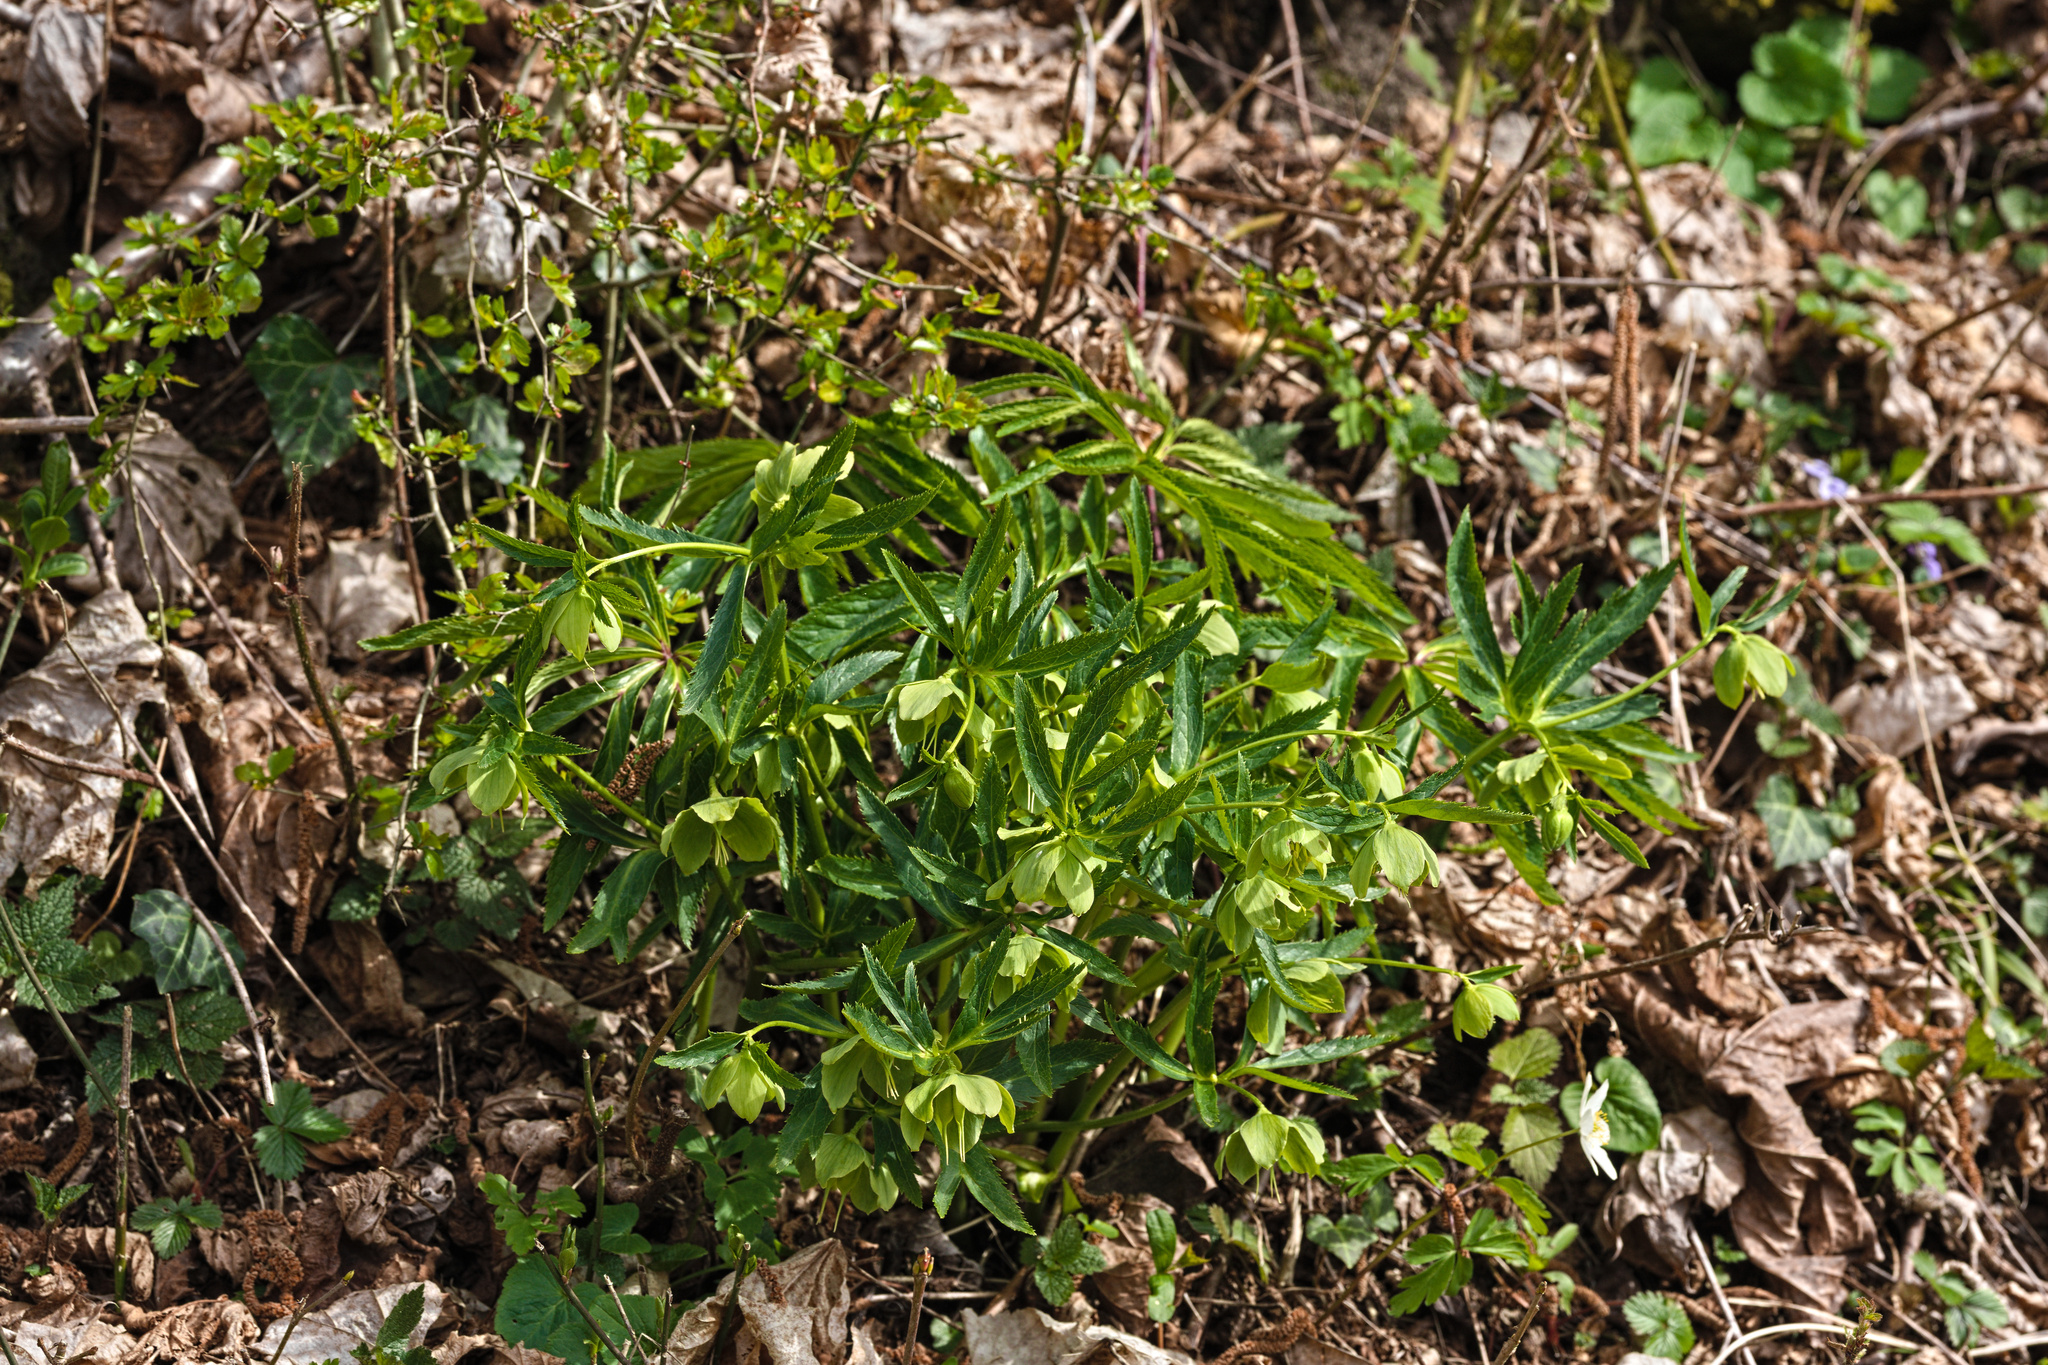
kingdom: Plantae
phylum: Tracheophyta
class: Magnoliopsida
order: Ranunculales
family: Ranunculaceae
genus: Helleborus
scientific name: Helleborus foetidus
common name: Stinking hellebore
